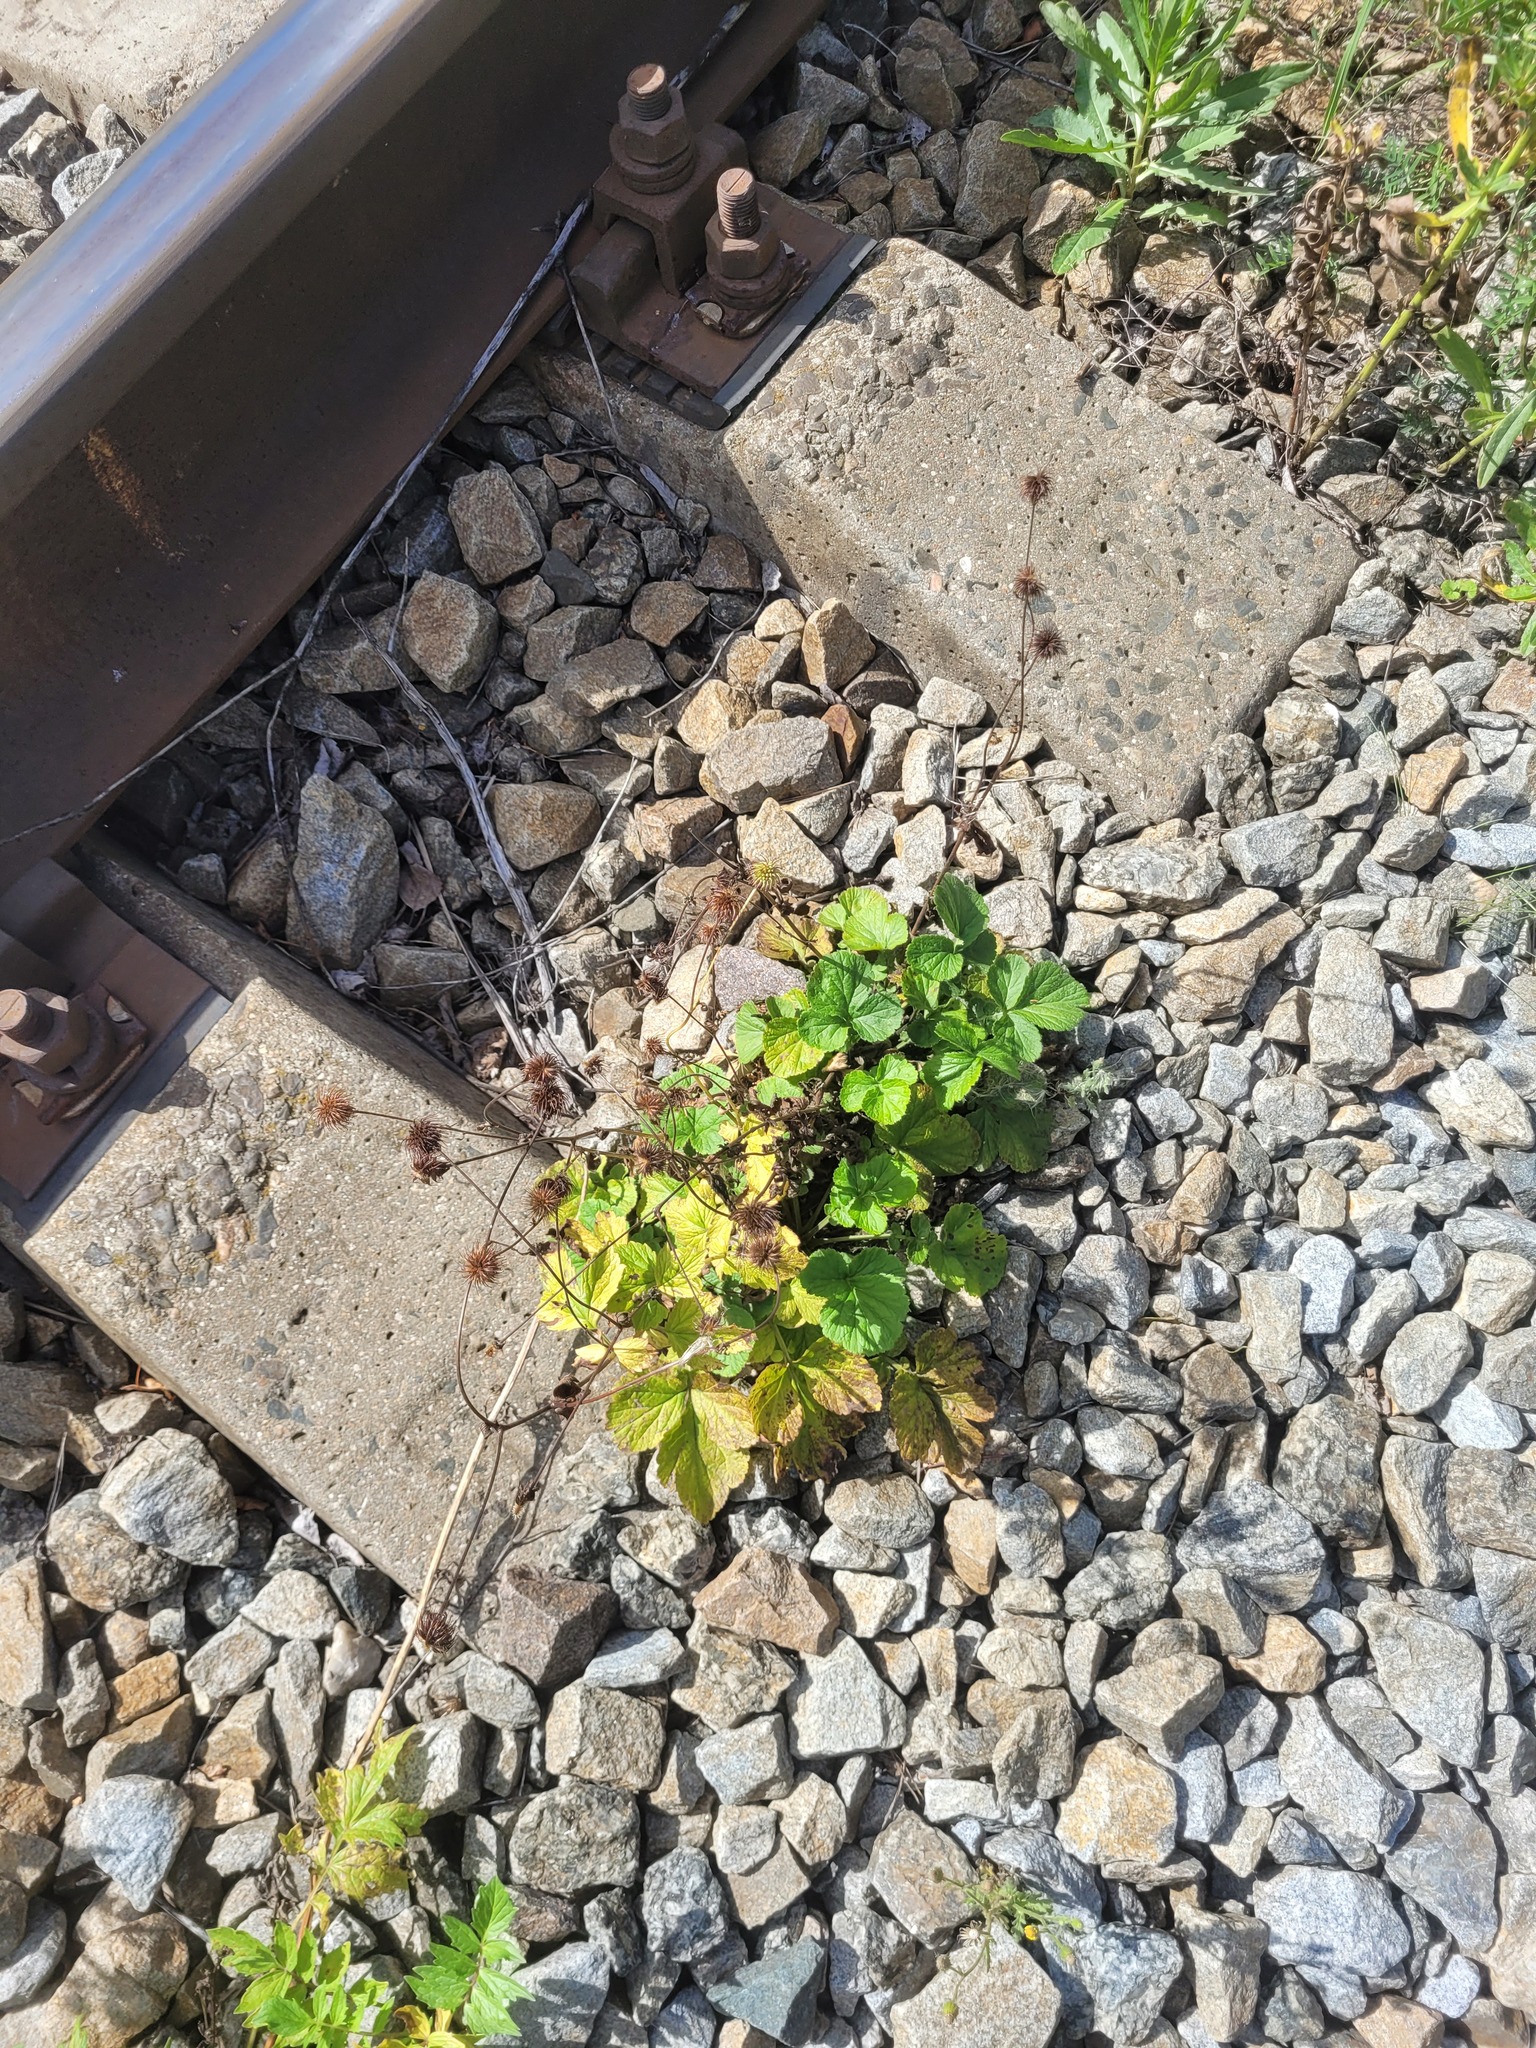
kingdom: Plantae
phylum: Tracheophyta
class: Magnoliopsida
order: Rosales
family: Rosaceae
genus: Geum
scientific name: Geum urbanum
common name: Wood avens
